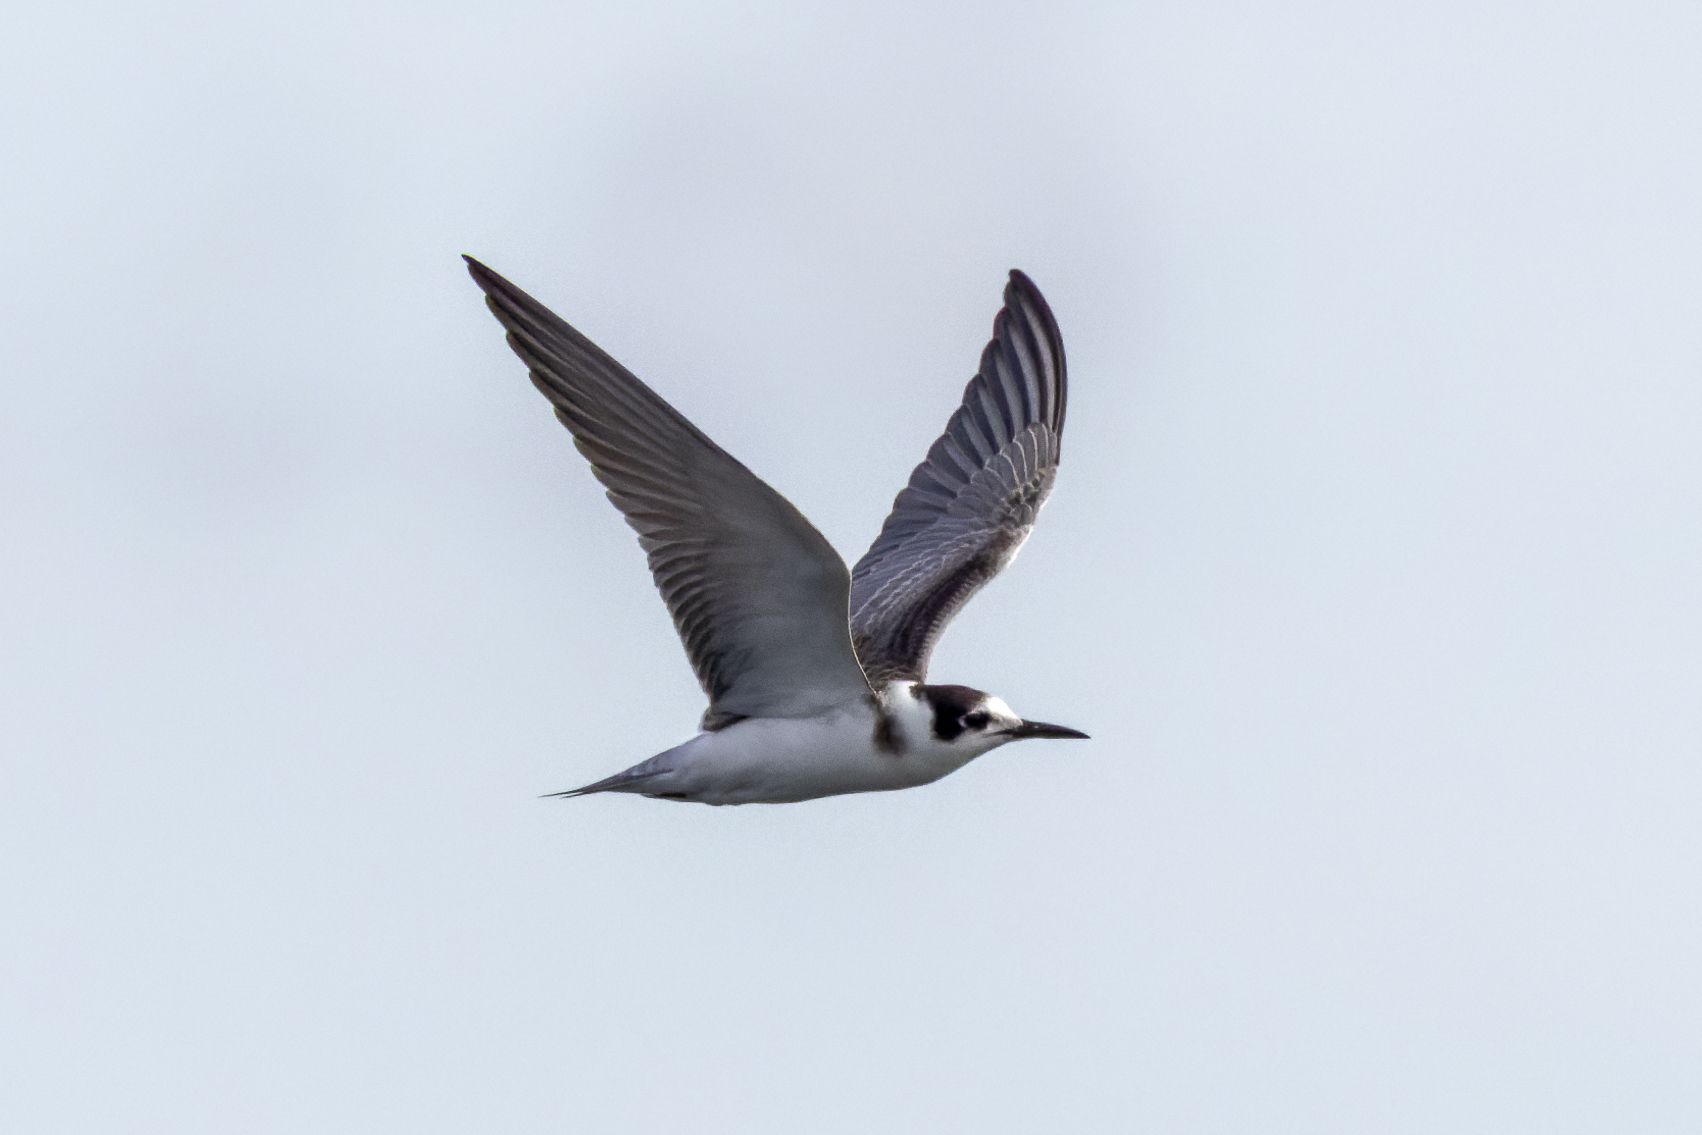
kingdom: Animalia
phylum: Chordata
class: Aves
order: Charadriiformes
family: Laridae
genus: Chlidonias
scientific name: Chlidonias niger
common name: Black tern
